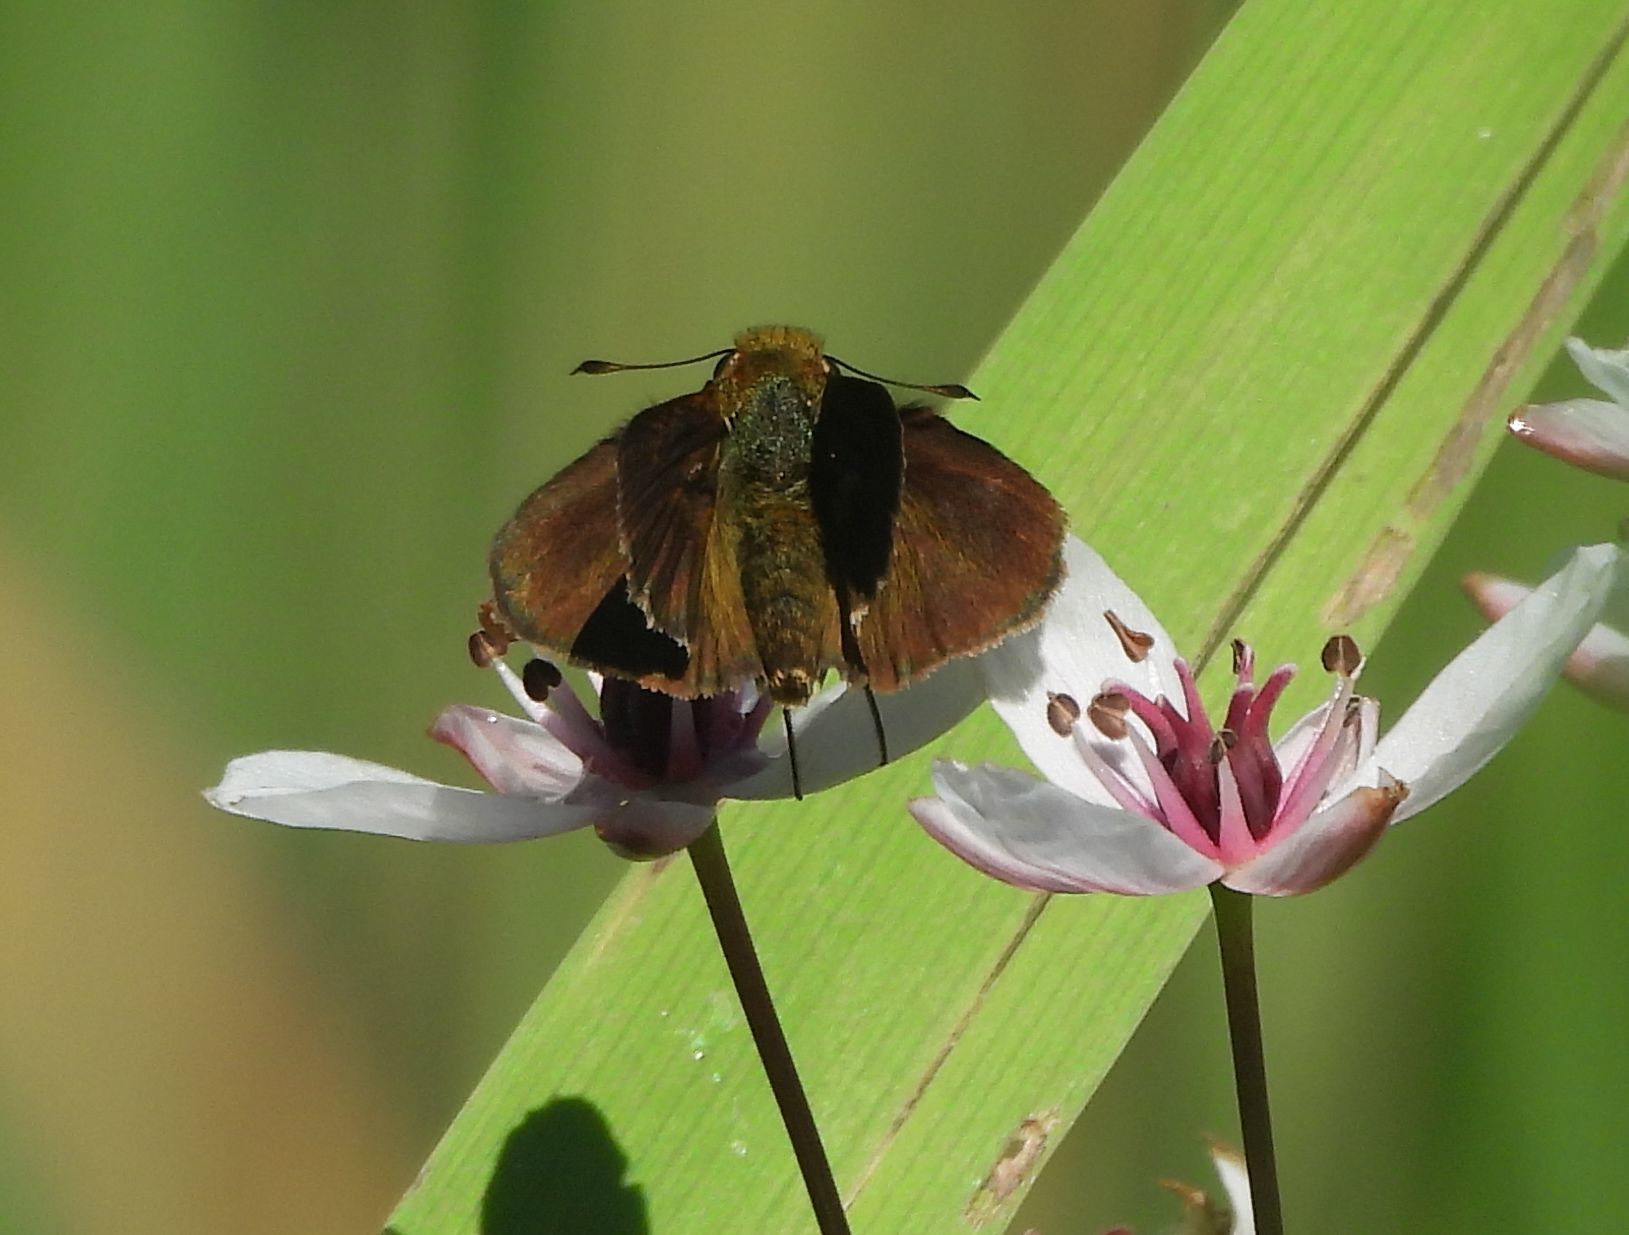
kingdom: Animalia
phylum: Arthropoda
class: Insecta
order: Lepidoptera
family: Hesperiidae
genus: Euphyes
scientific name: Euphyes vestris
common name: Dun skipper
